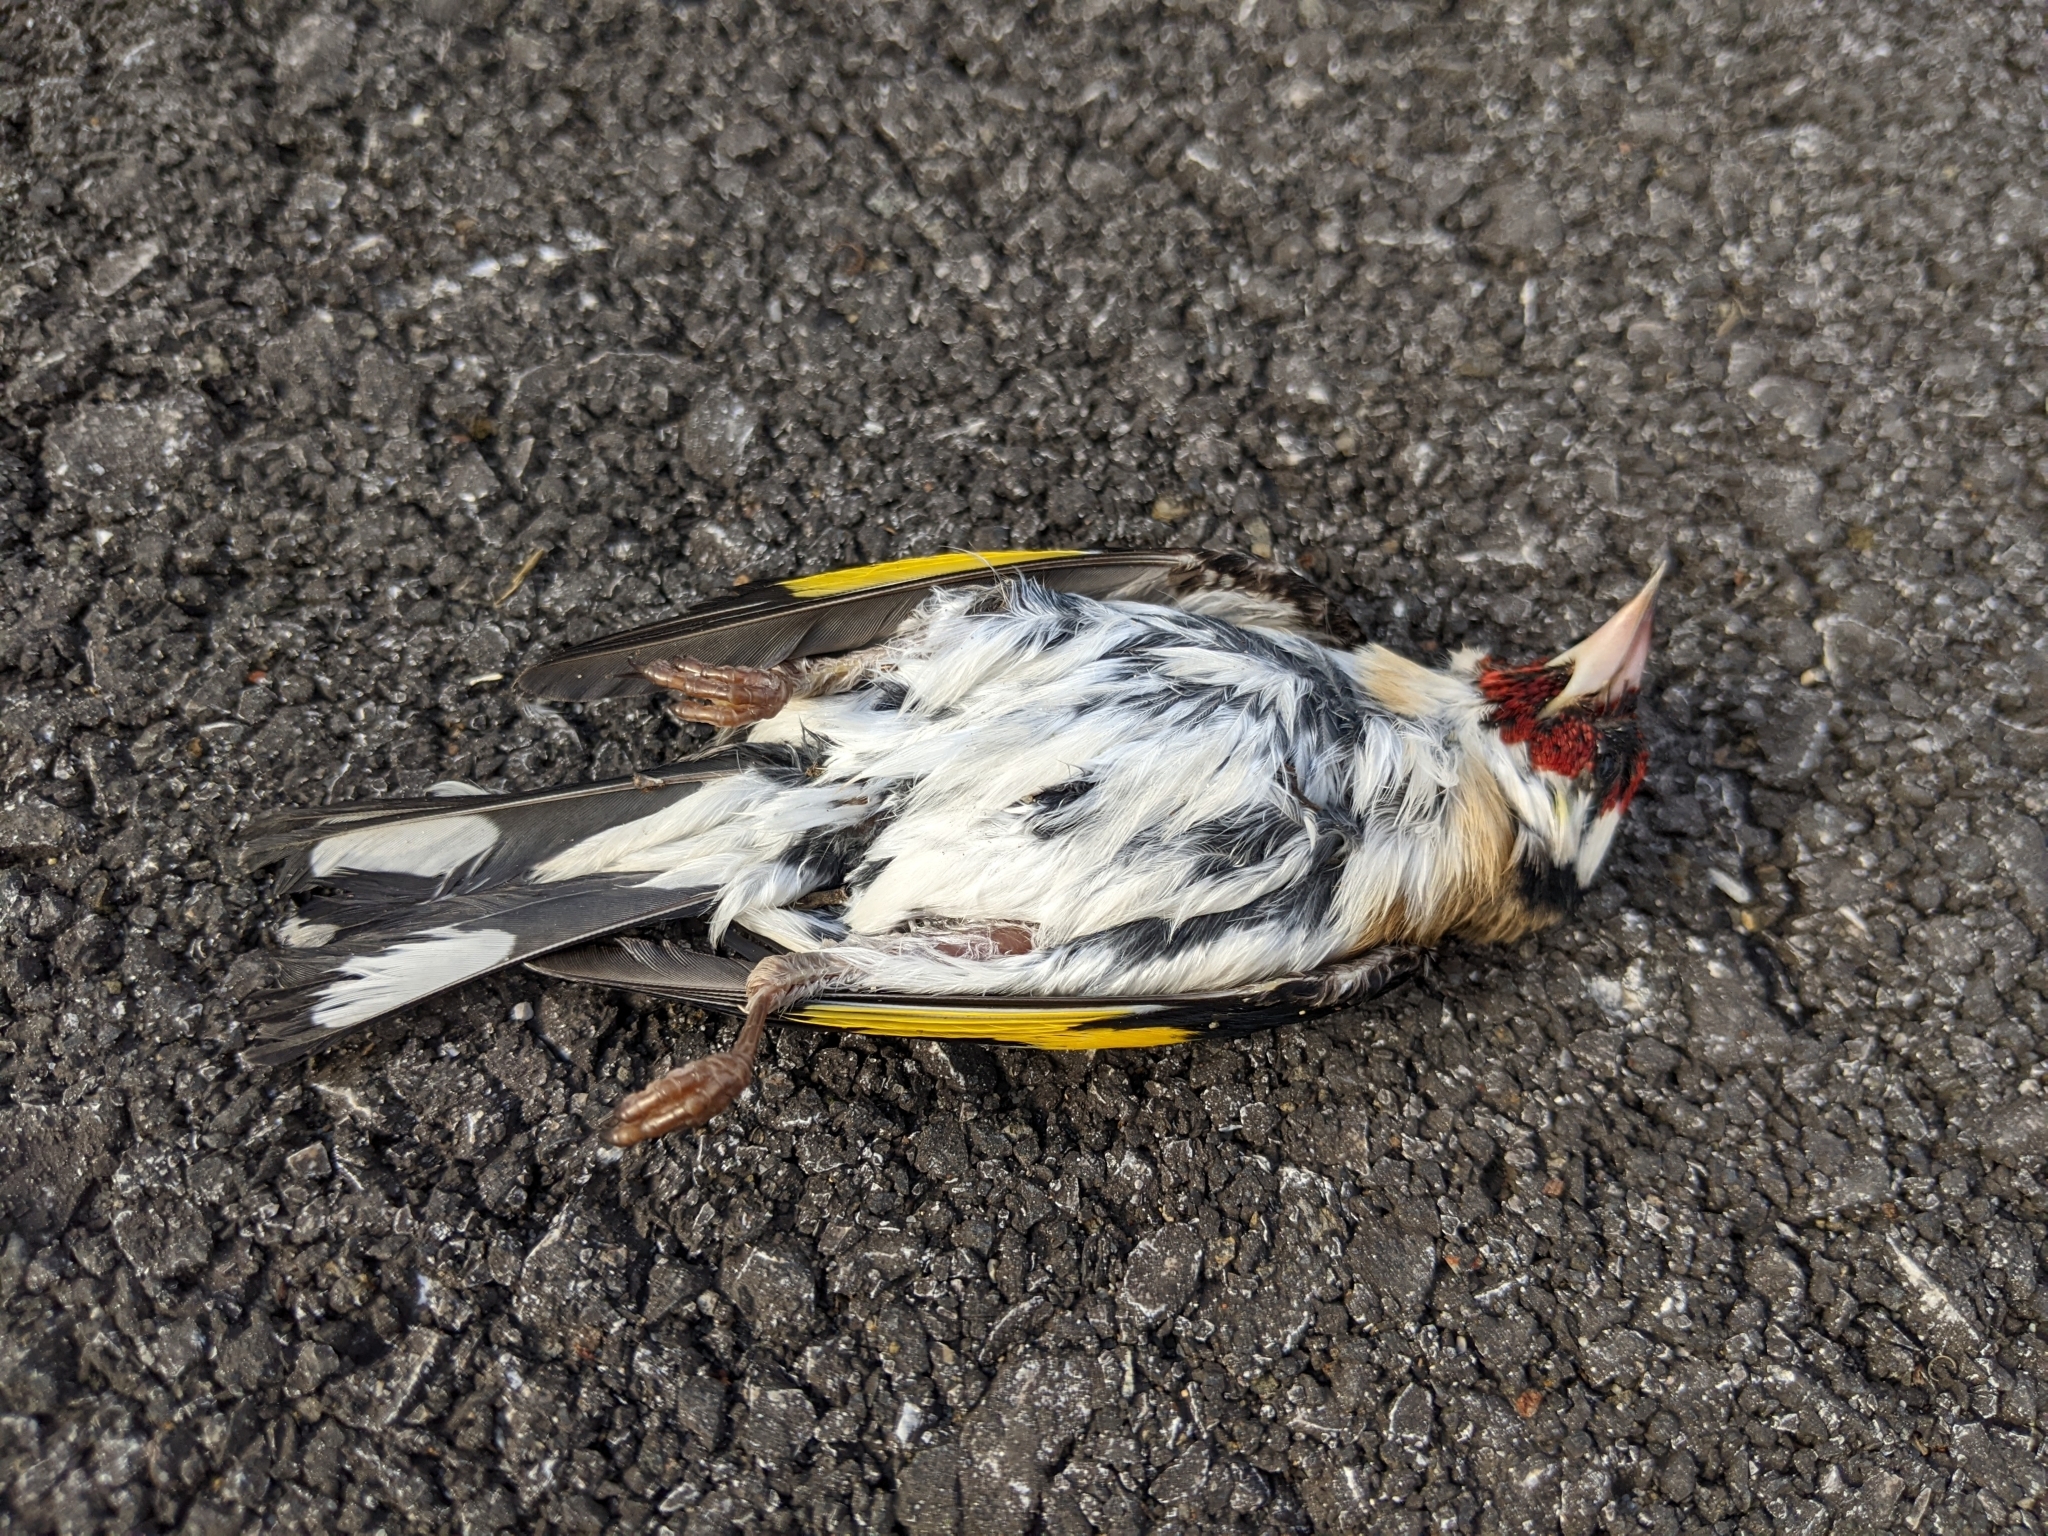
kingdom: Animalia
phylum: Chordata
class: Aves
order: Passeriformes
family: Fringillidae
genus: Carduelis
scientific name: Carduelis carduelis
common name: European goldfinch
